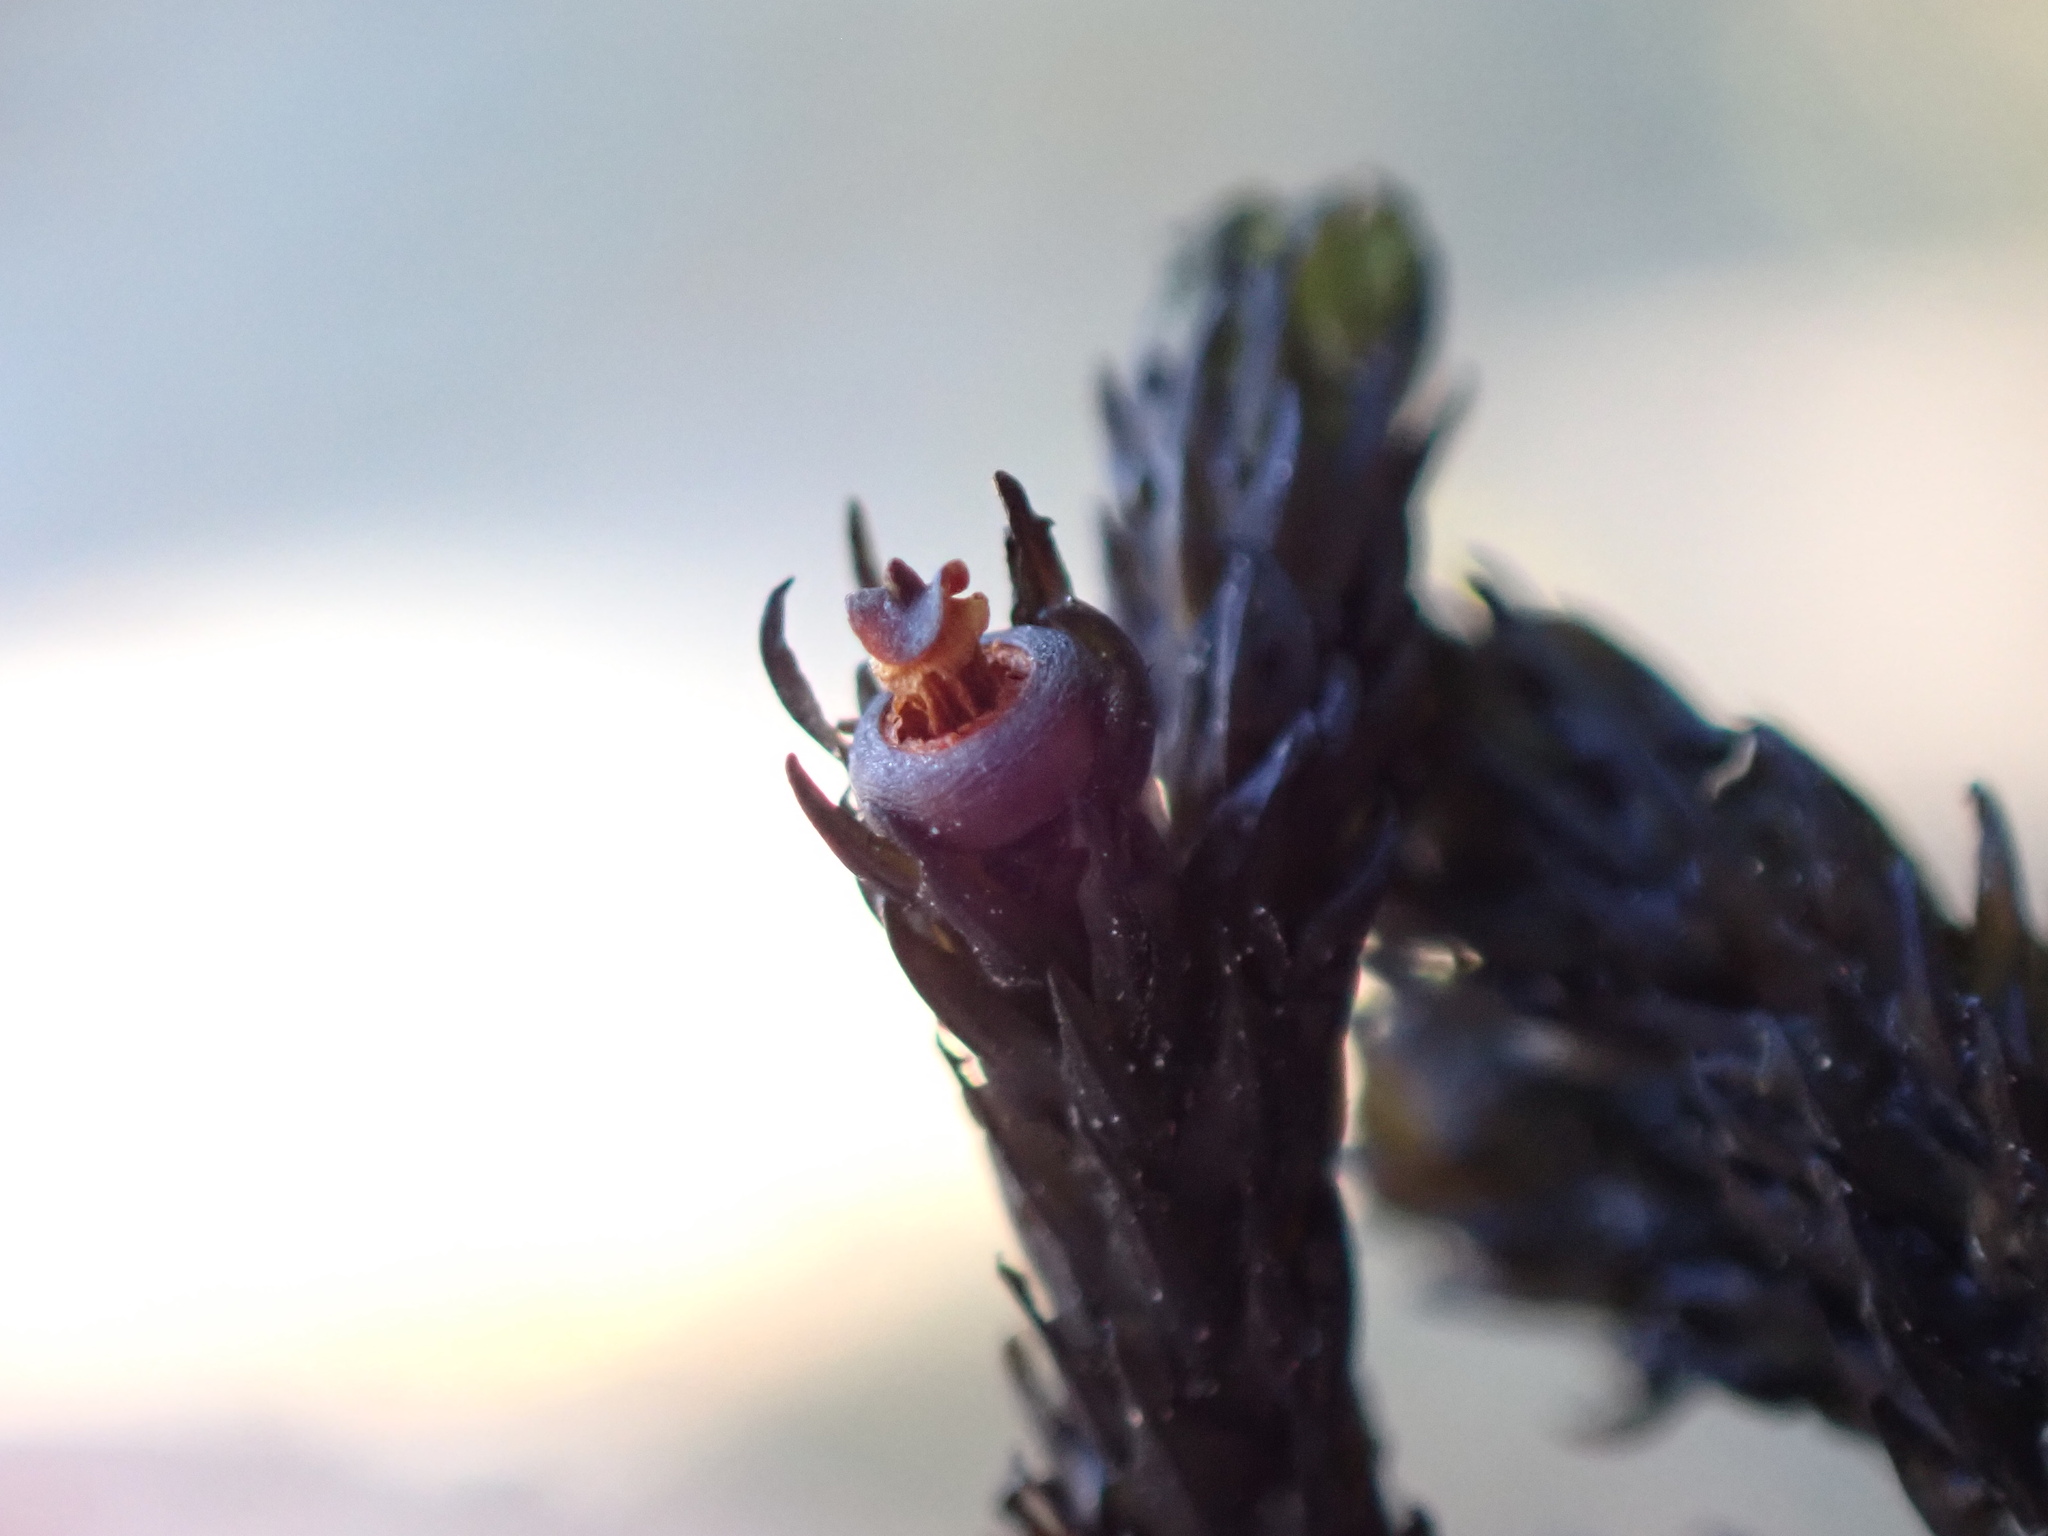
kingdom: Plantae
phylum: Bryophyta
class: Bryopsida
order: Scouleriales
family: Scouleriaceae
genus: Scouleria
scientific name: Scouleria aquatica
